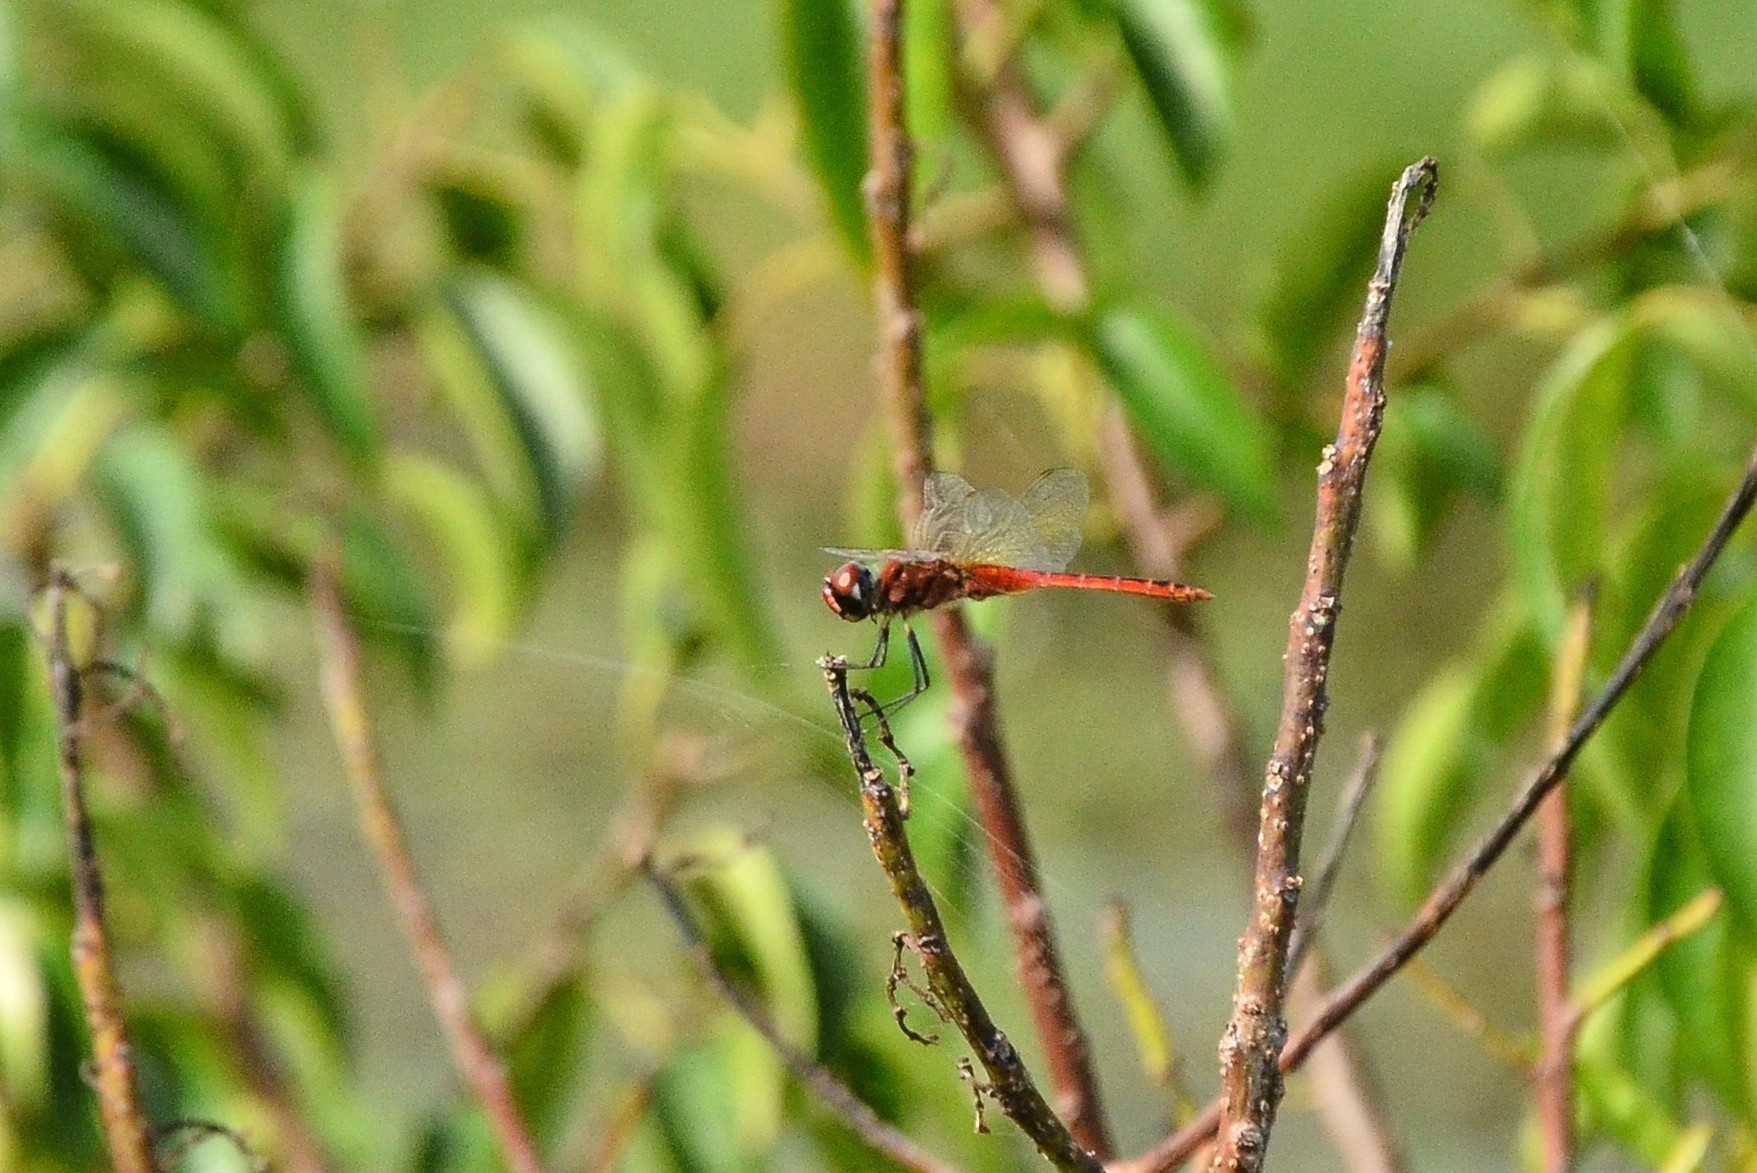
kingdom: Animalia
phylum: Arthropoda
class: Insecta
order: Odonata
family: Libellulidae
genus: Macrodiplax
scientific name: Macrodiplax cora
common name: Coastal glider
